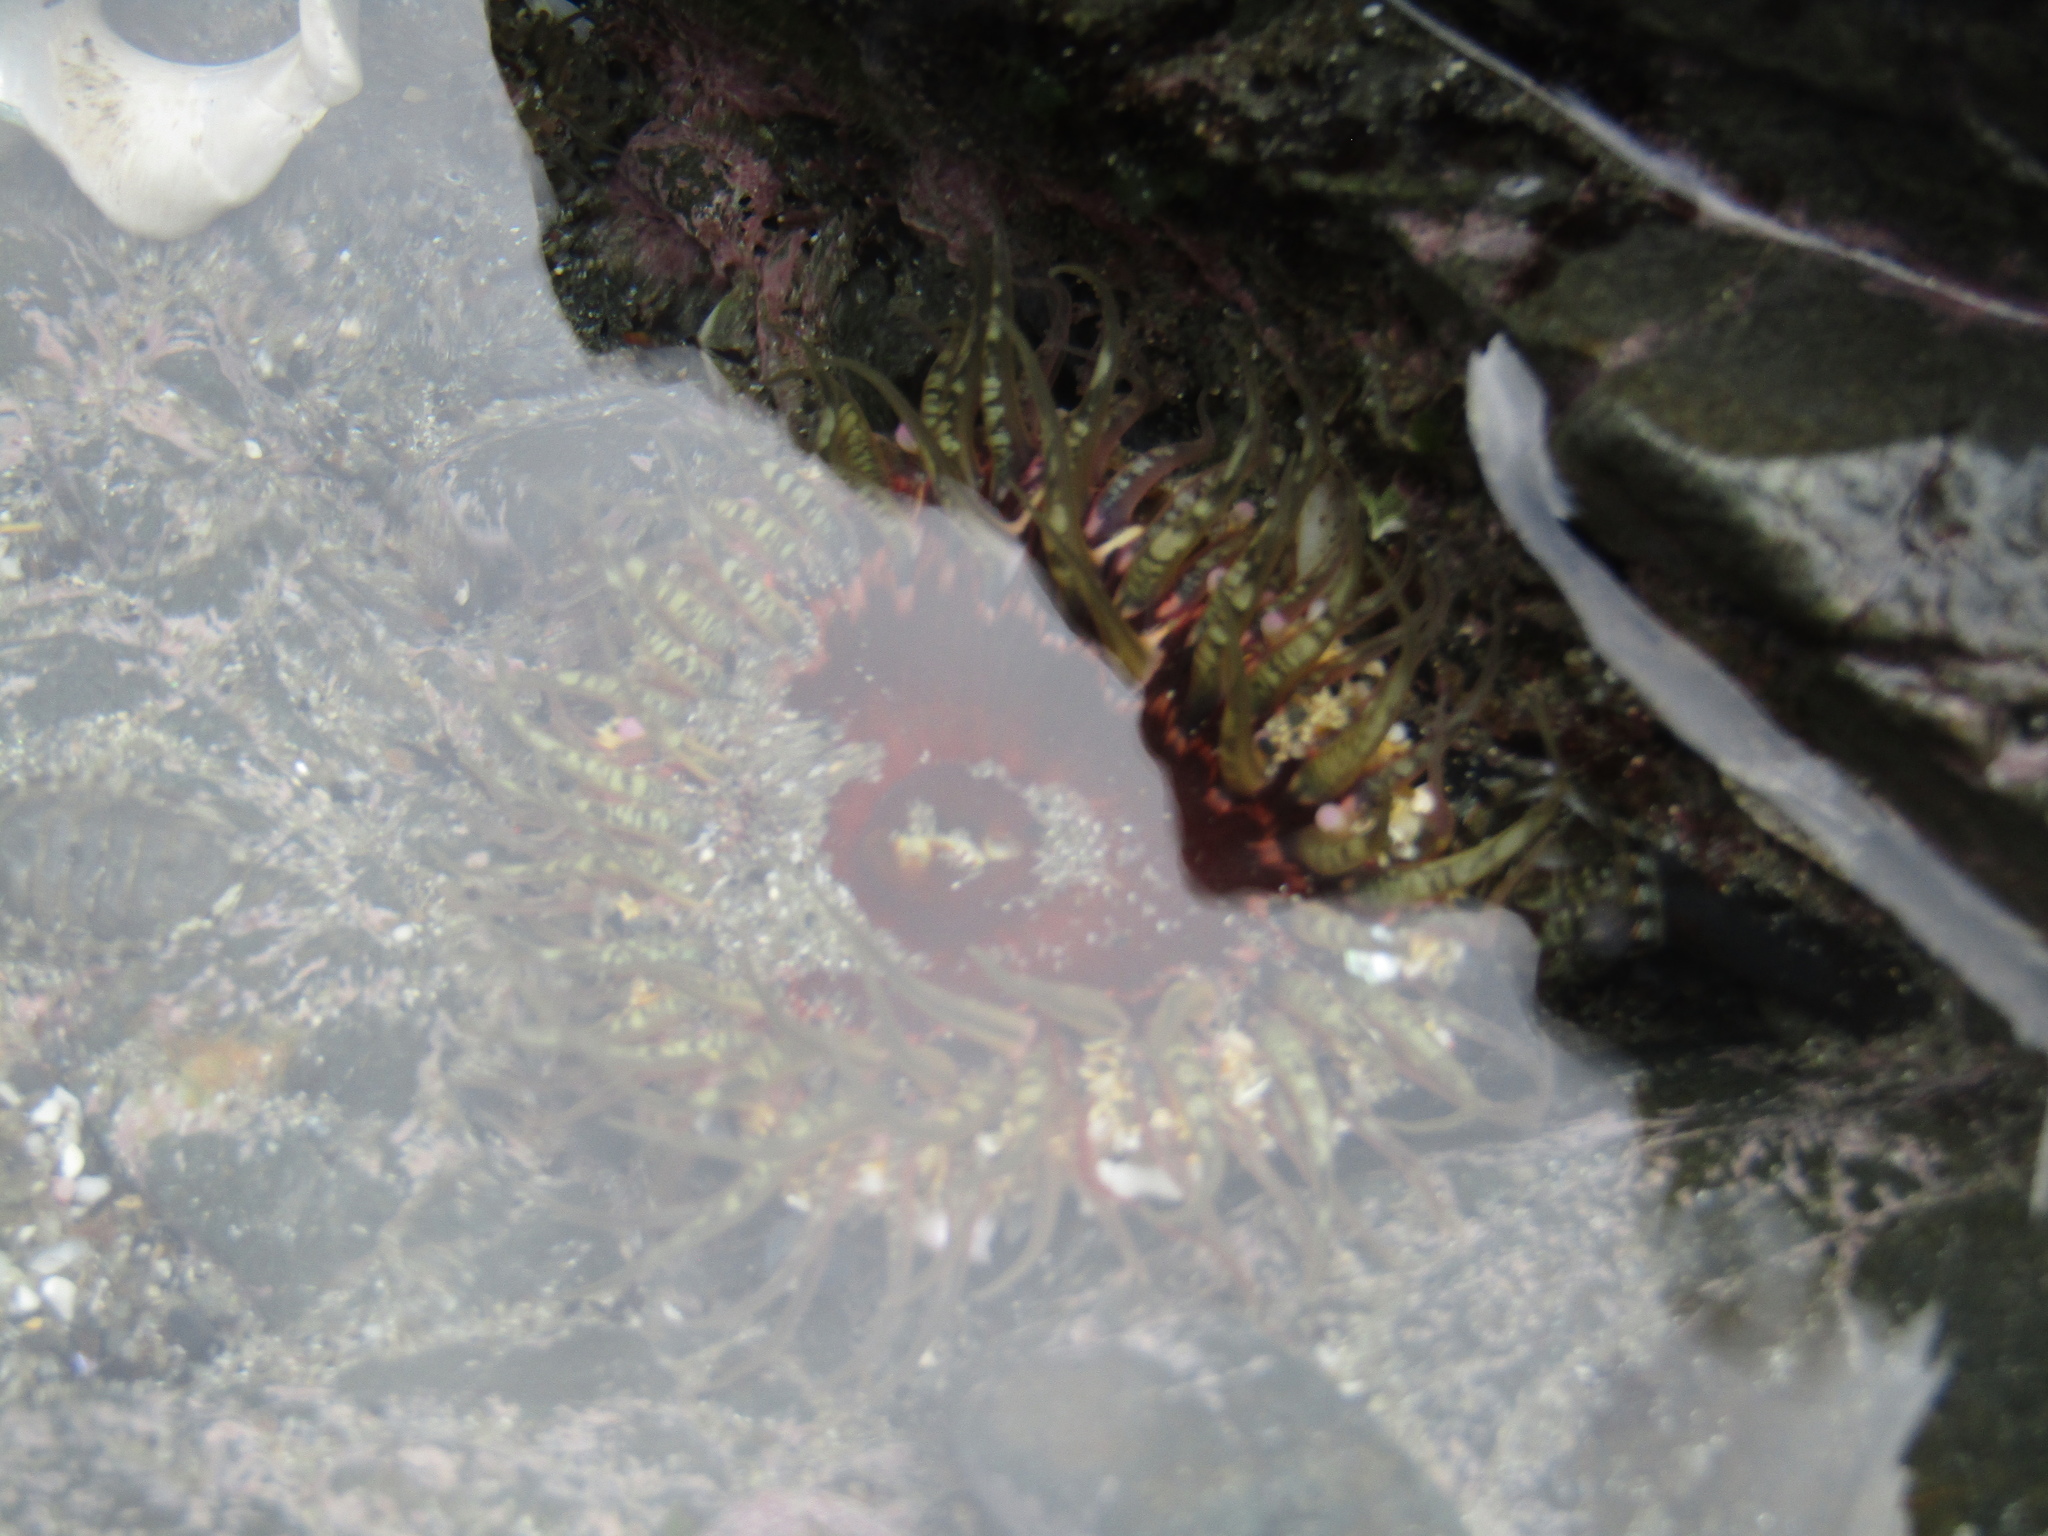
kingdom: Animalia
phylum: Cnidaria
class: Anthozoa
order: Actiniaria
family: Actiniidae
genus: Oulactis
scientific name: Oulactis muscosa
